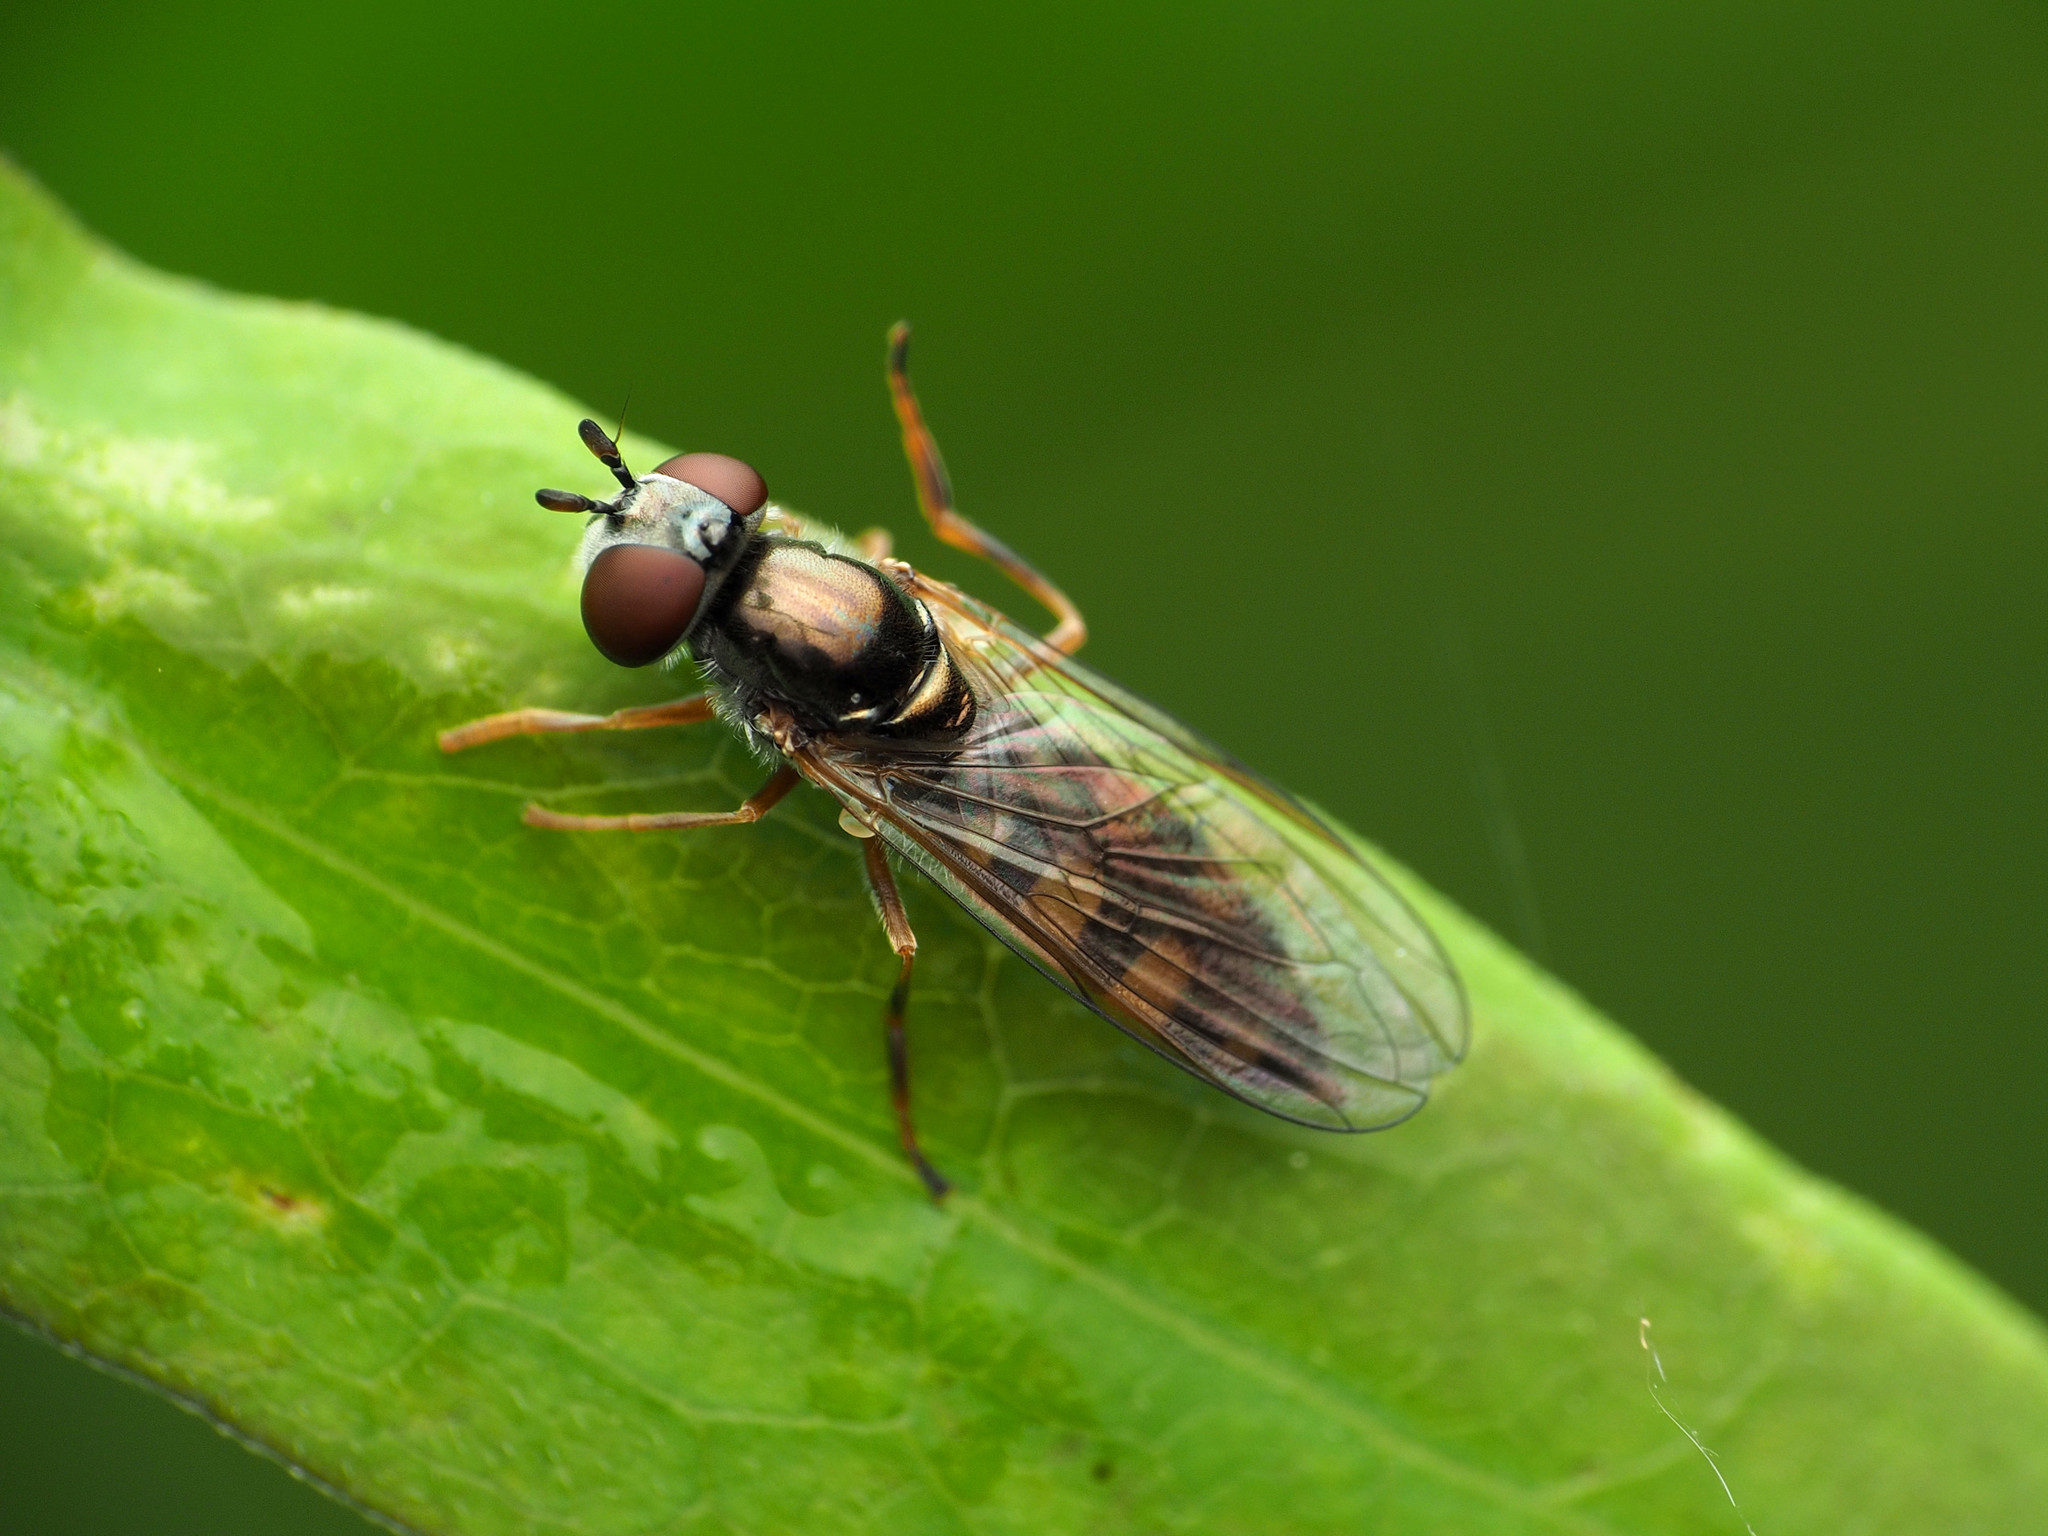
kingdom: Animalia
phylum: Arthropoda
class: Insecta
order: Diptera
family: Syrphidae
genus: Platycheirus
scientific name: Platycheirus hyperboreus
